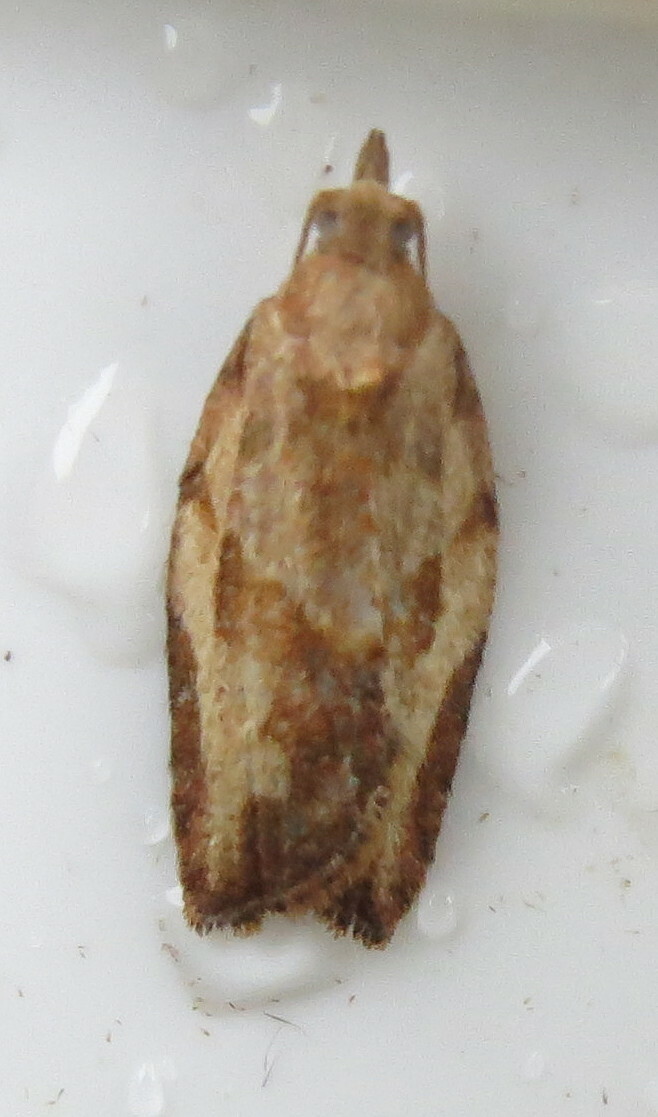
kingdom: Animalia
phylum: Arthropoda
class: Insecta
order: Lepidoptera
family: Tortricidae
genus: Epiphyas
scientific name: Epiphyas postvittana
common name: Light brown apple moth
